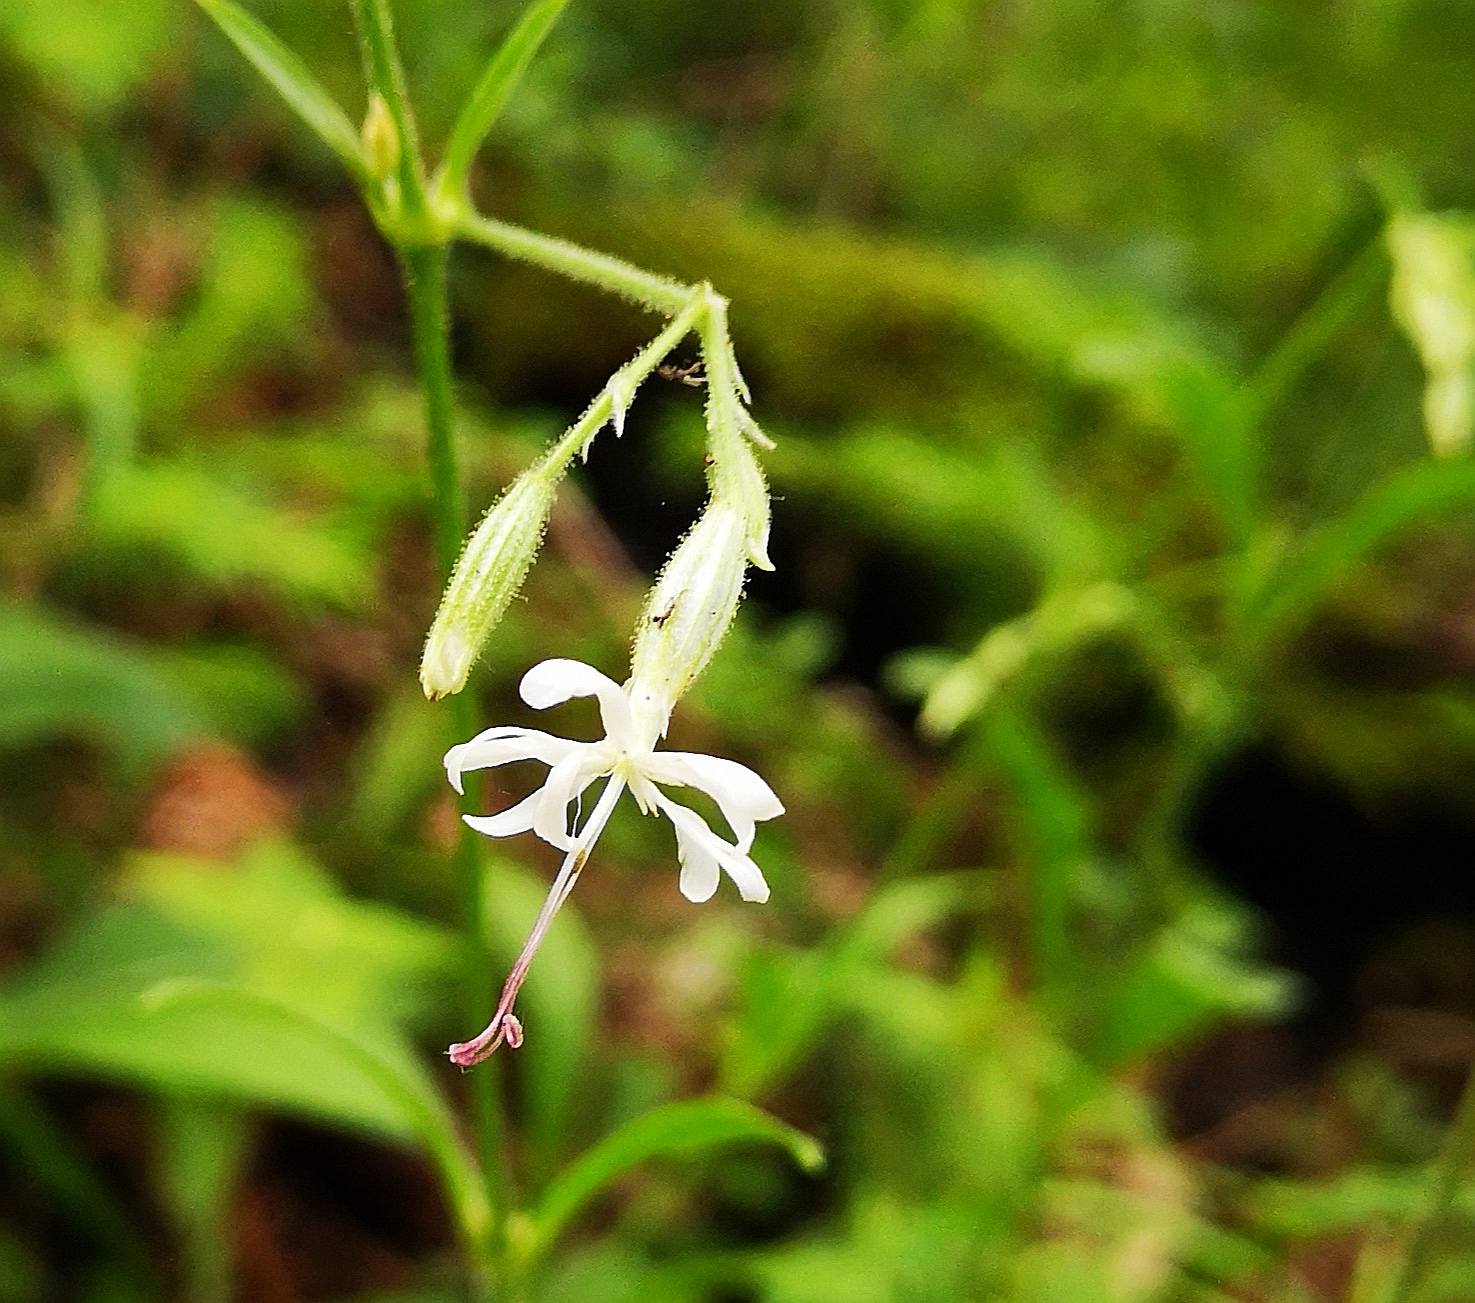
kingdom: Plantae
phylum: Tracheophyta
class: Magnoliopsida
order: Caryophyllales
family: Caryophyllaceae
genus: Silene
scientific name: Silene nutans
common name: Nottingham catchfly
